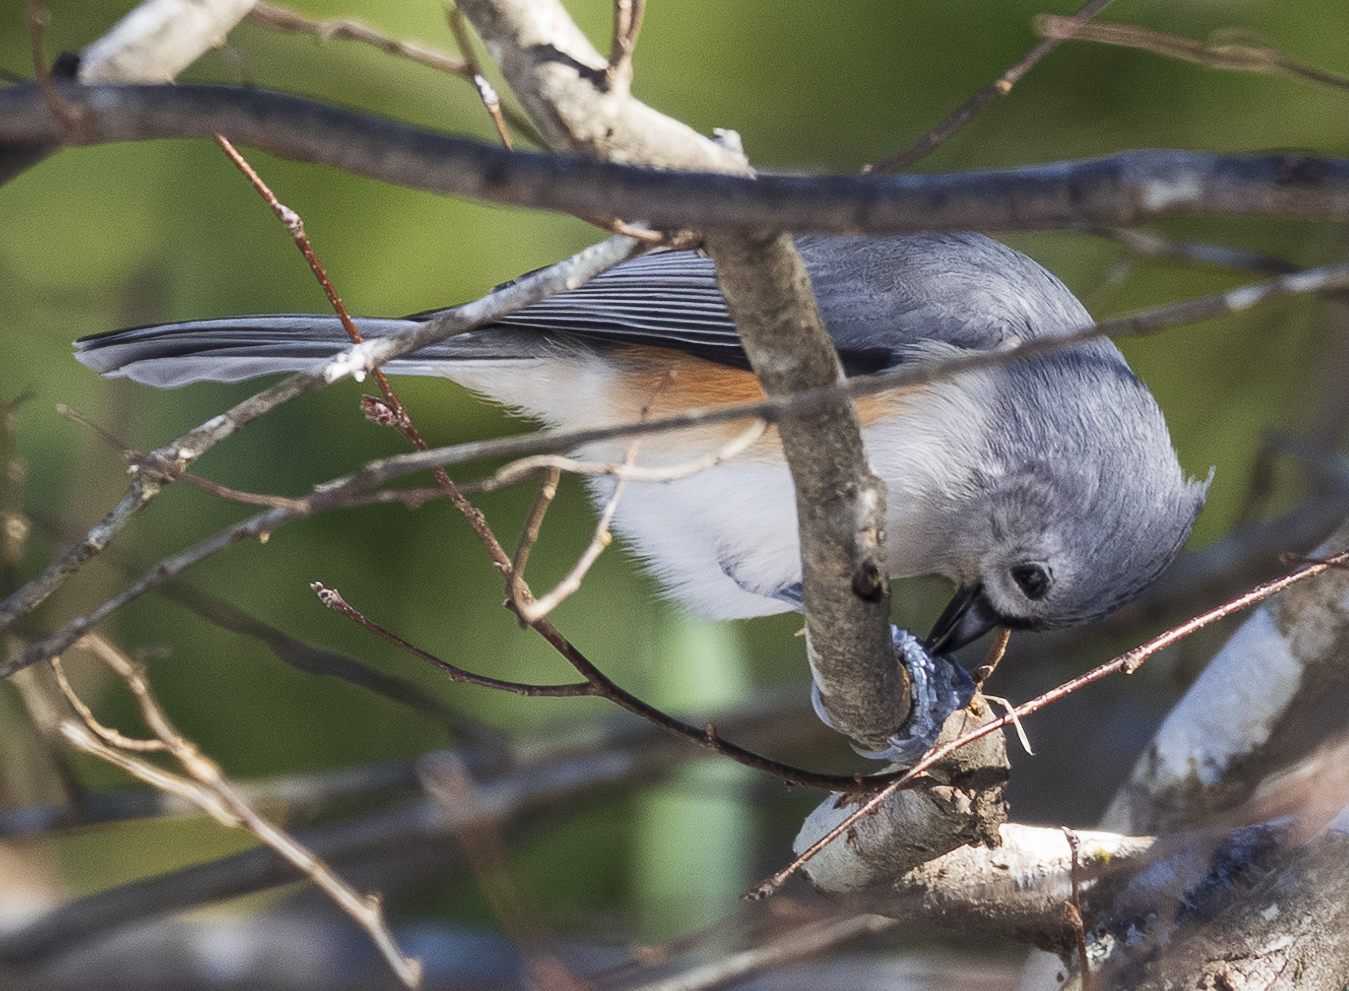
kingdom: Animalia
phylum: Chordata
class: Aves
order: Passeriformes
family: Paridae
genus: Baeolophus
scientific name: Baeolophus bicolor
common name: Tufted titmouse
